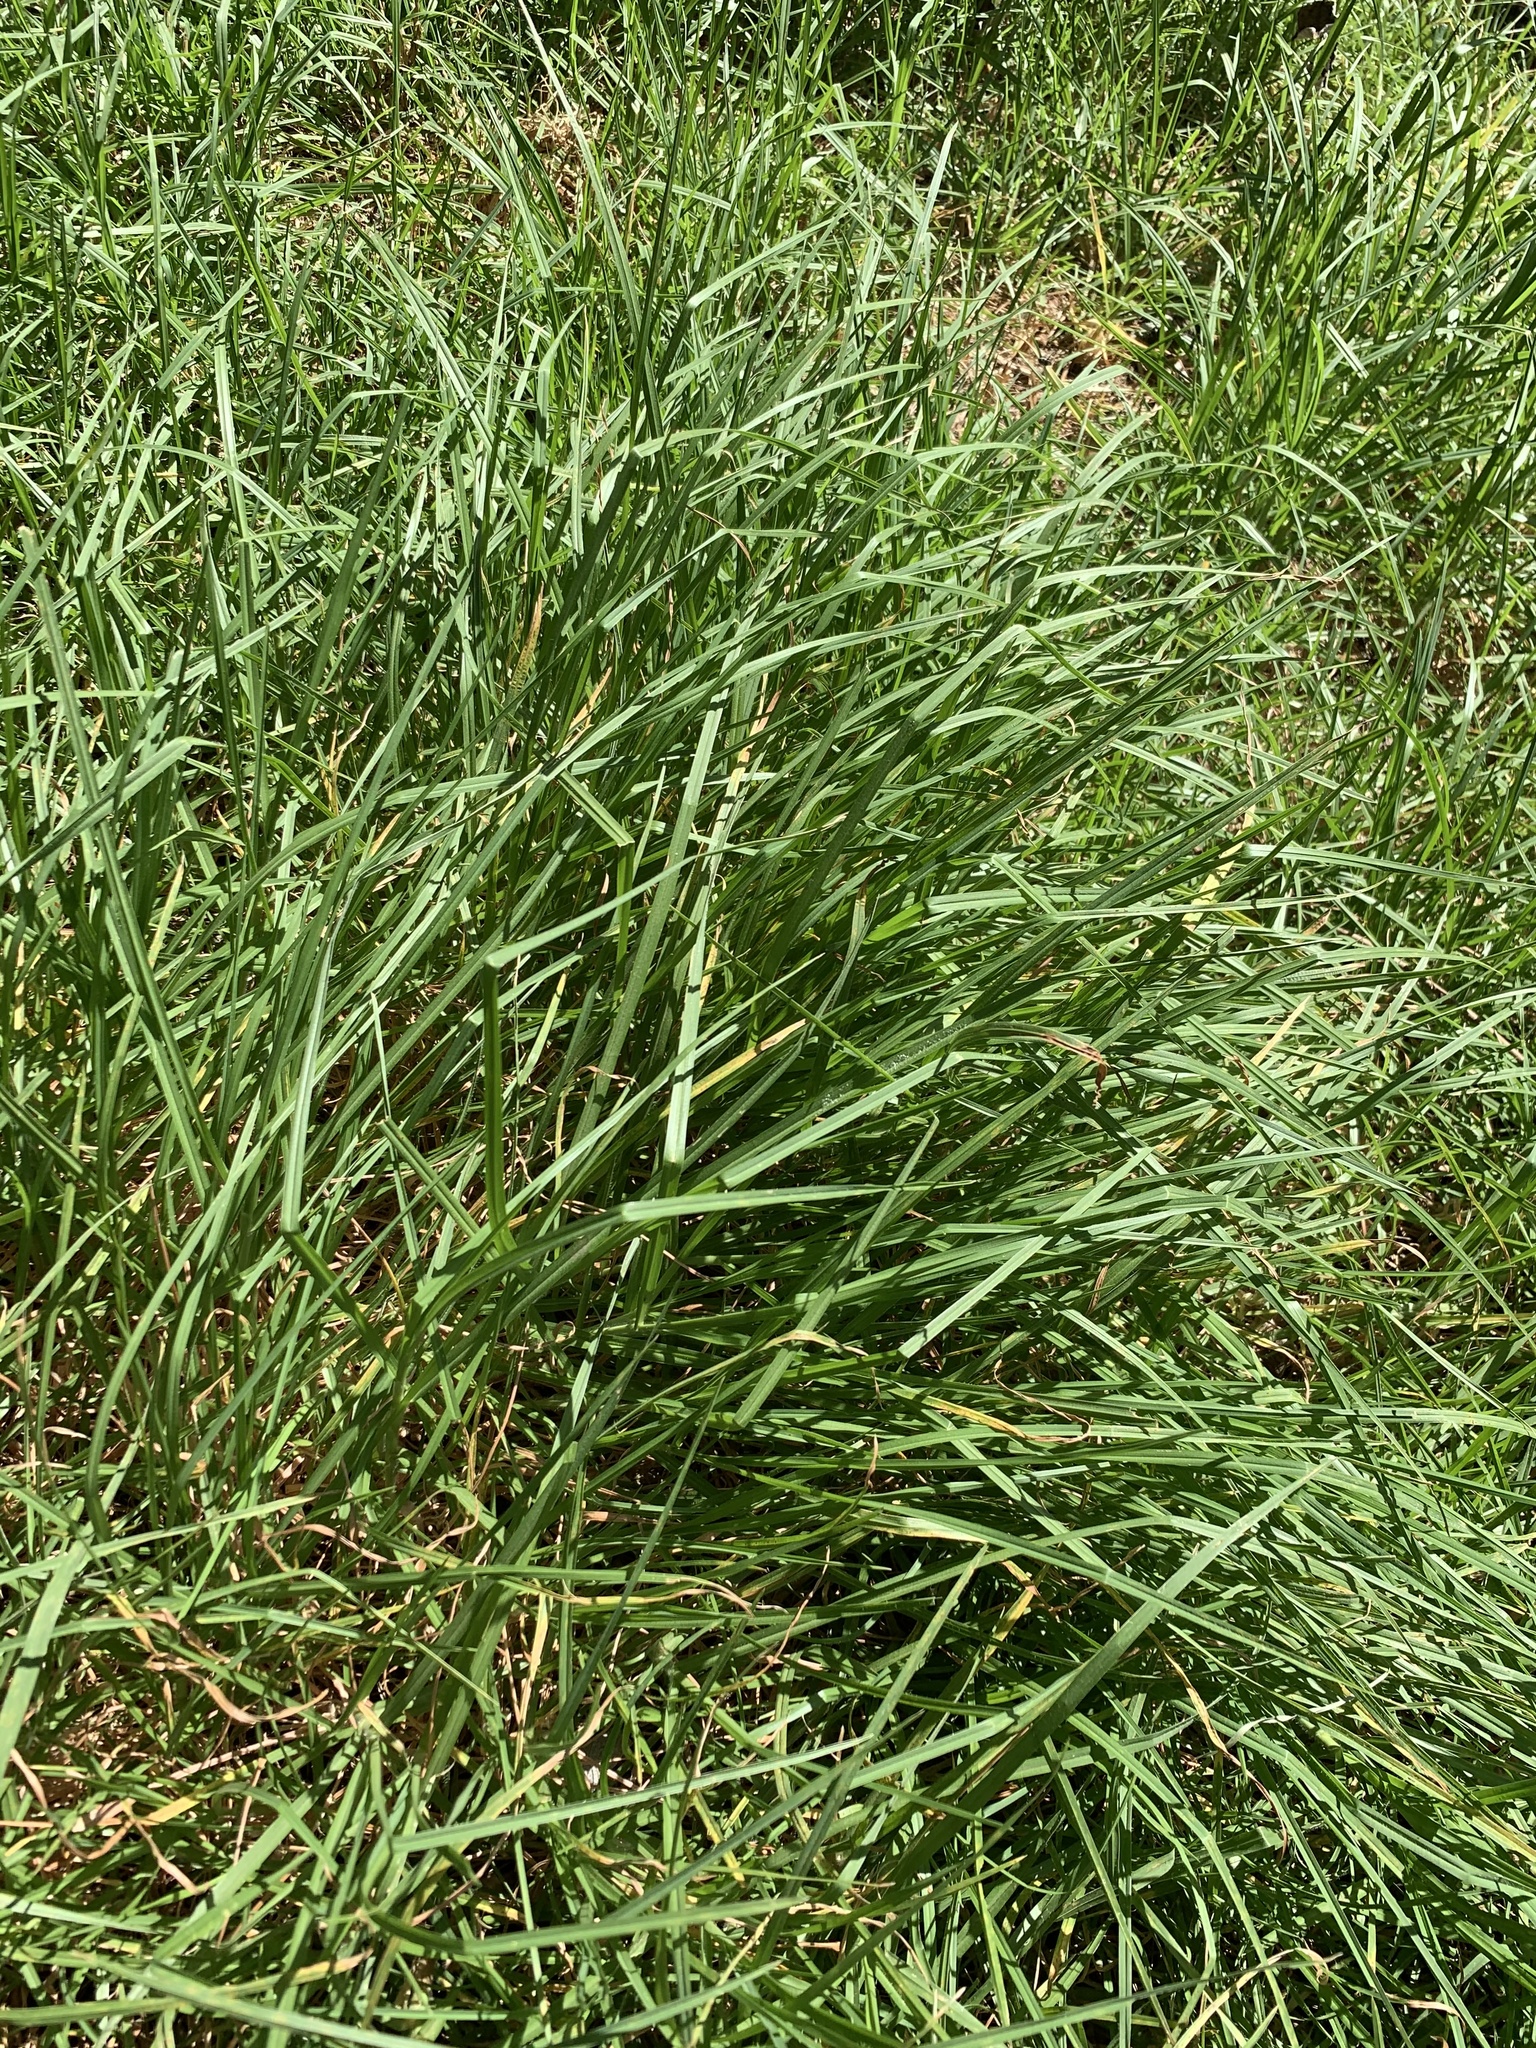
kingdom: Plantae
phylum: Tracheophyta
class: Liliopsida
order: Poales
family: Poaceae
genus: Cenchrus
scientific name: Cenchrus clandestinus
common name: Kikuyugrass
